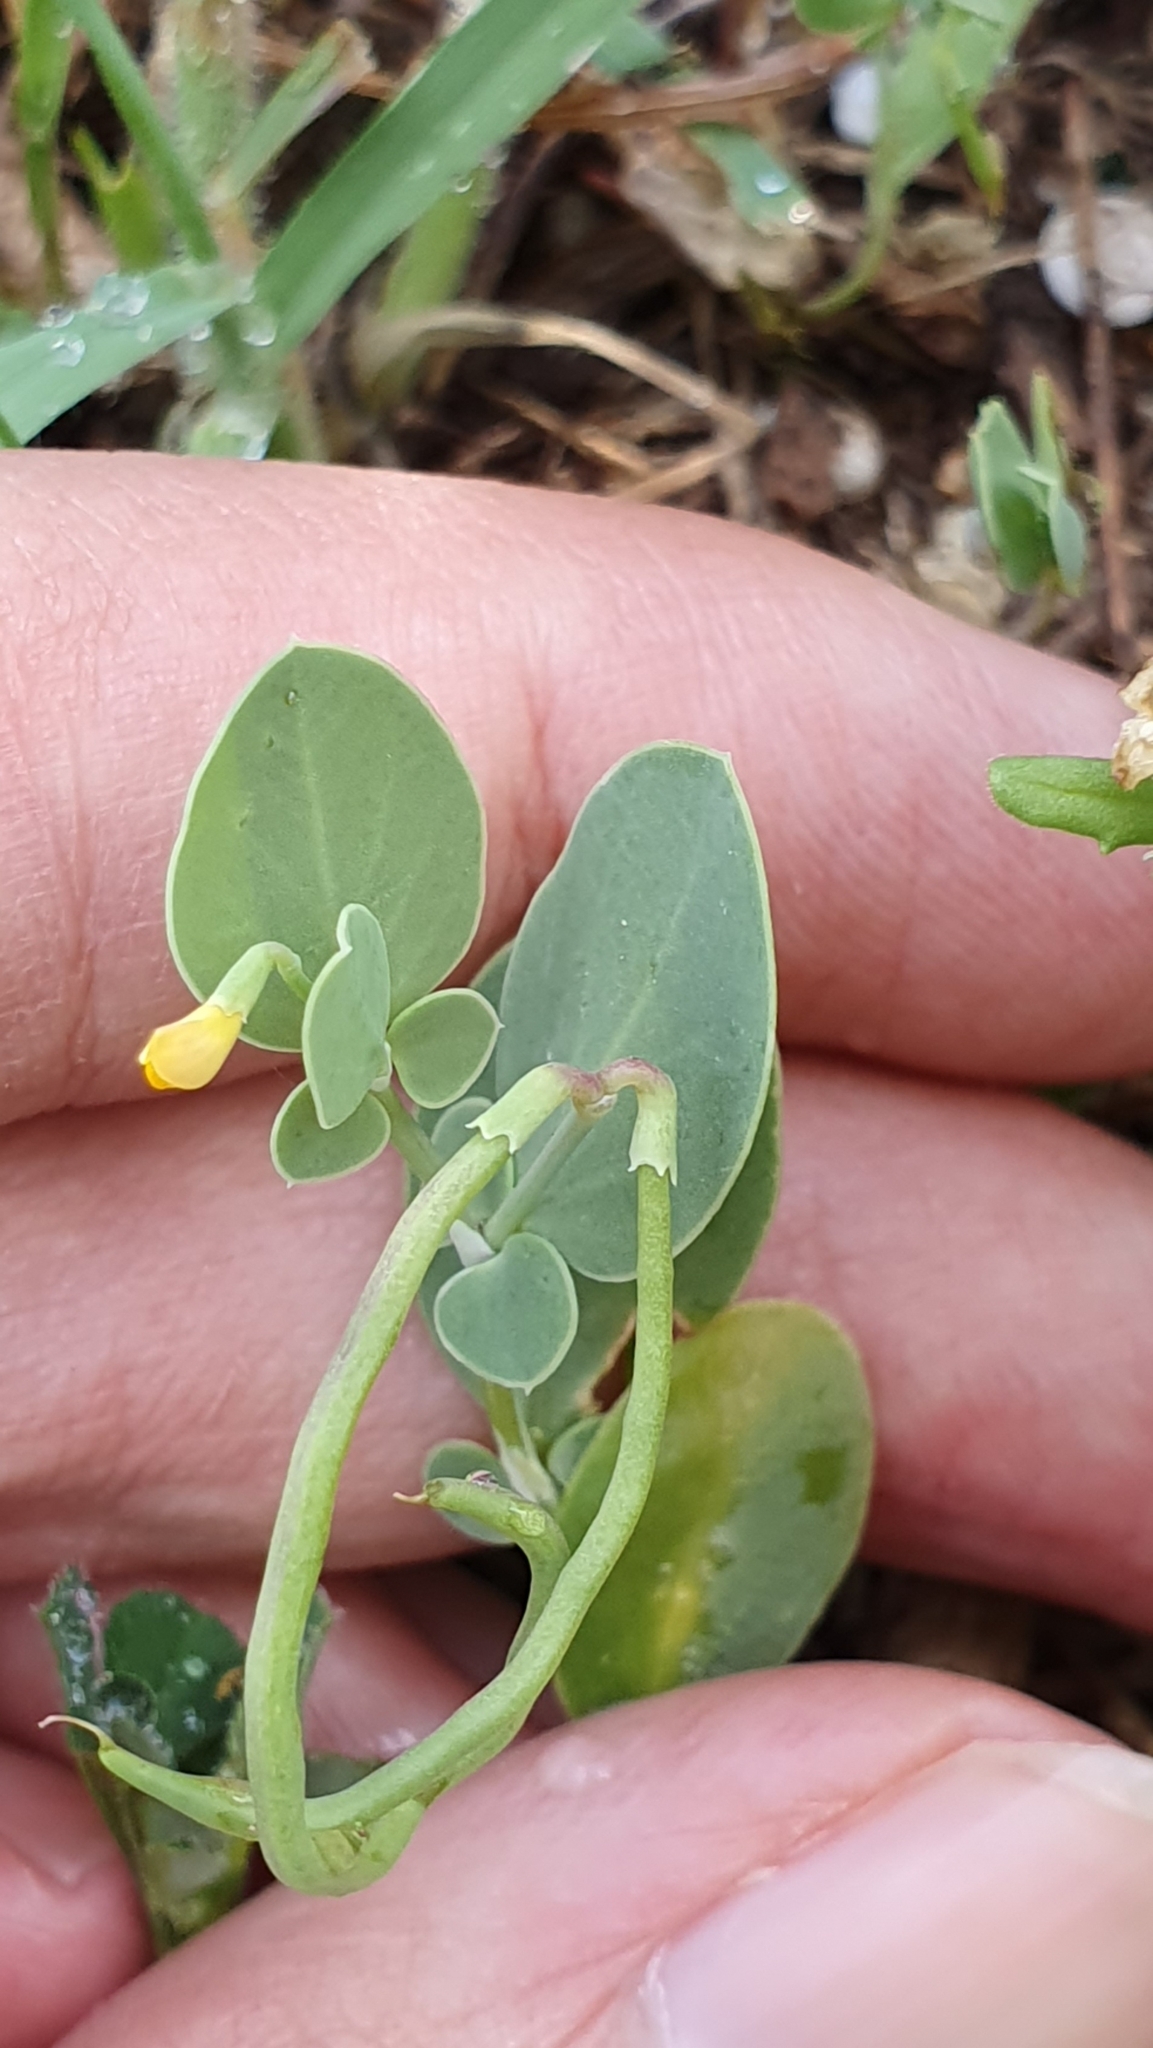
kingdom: Plantae
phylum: Tracheophyta
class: Magnoliopsida
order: Fabales
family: Fabaceae
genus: Coronilla
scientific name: Coronilla scorpioides
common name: Annual scorpion-vetch
